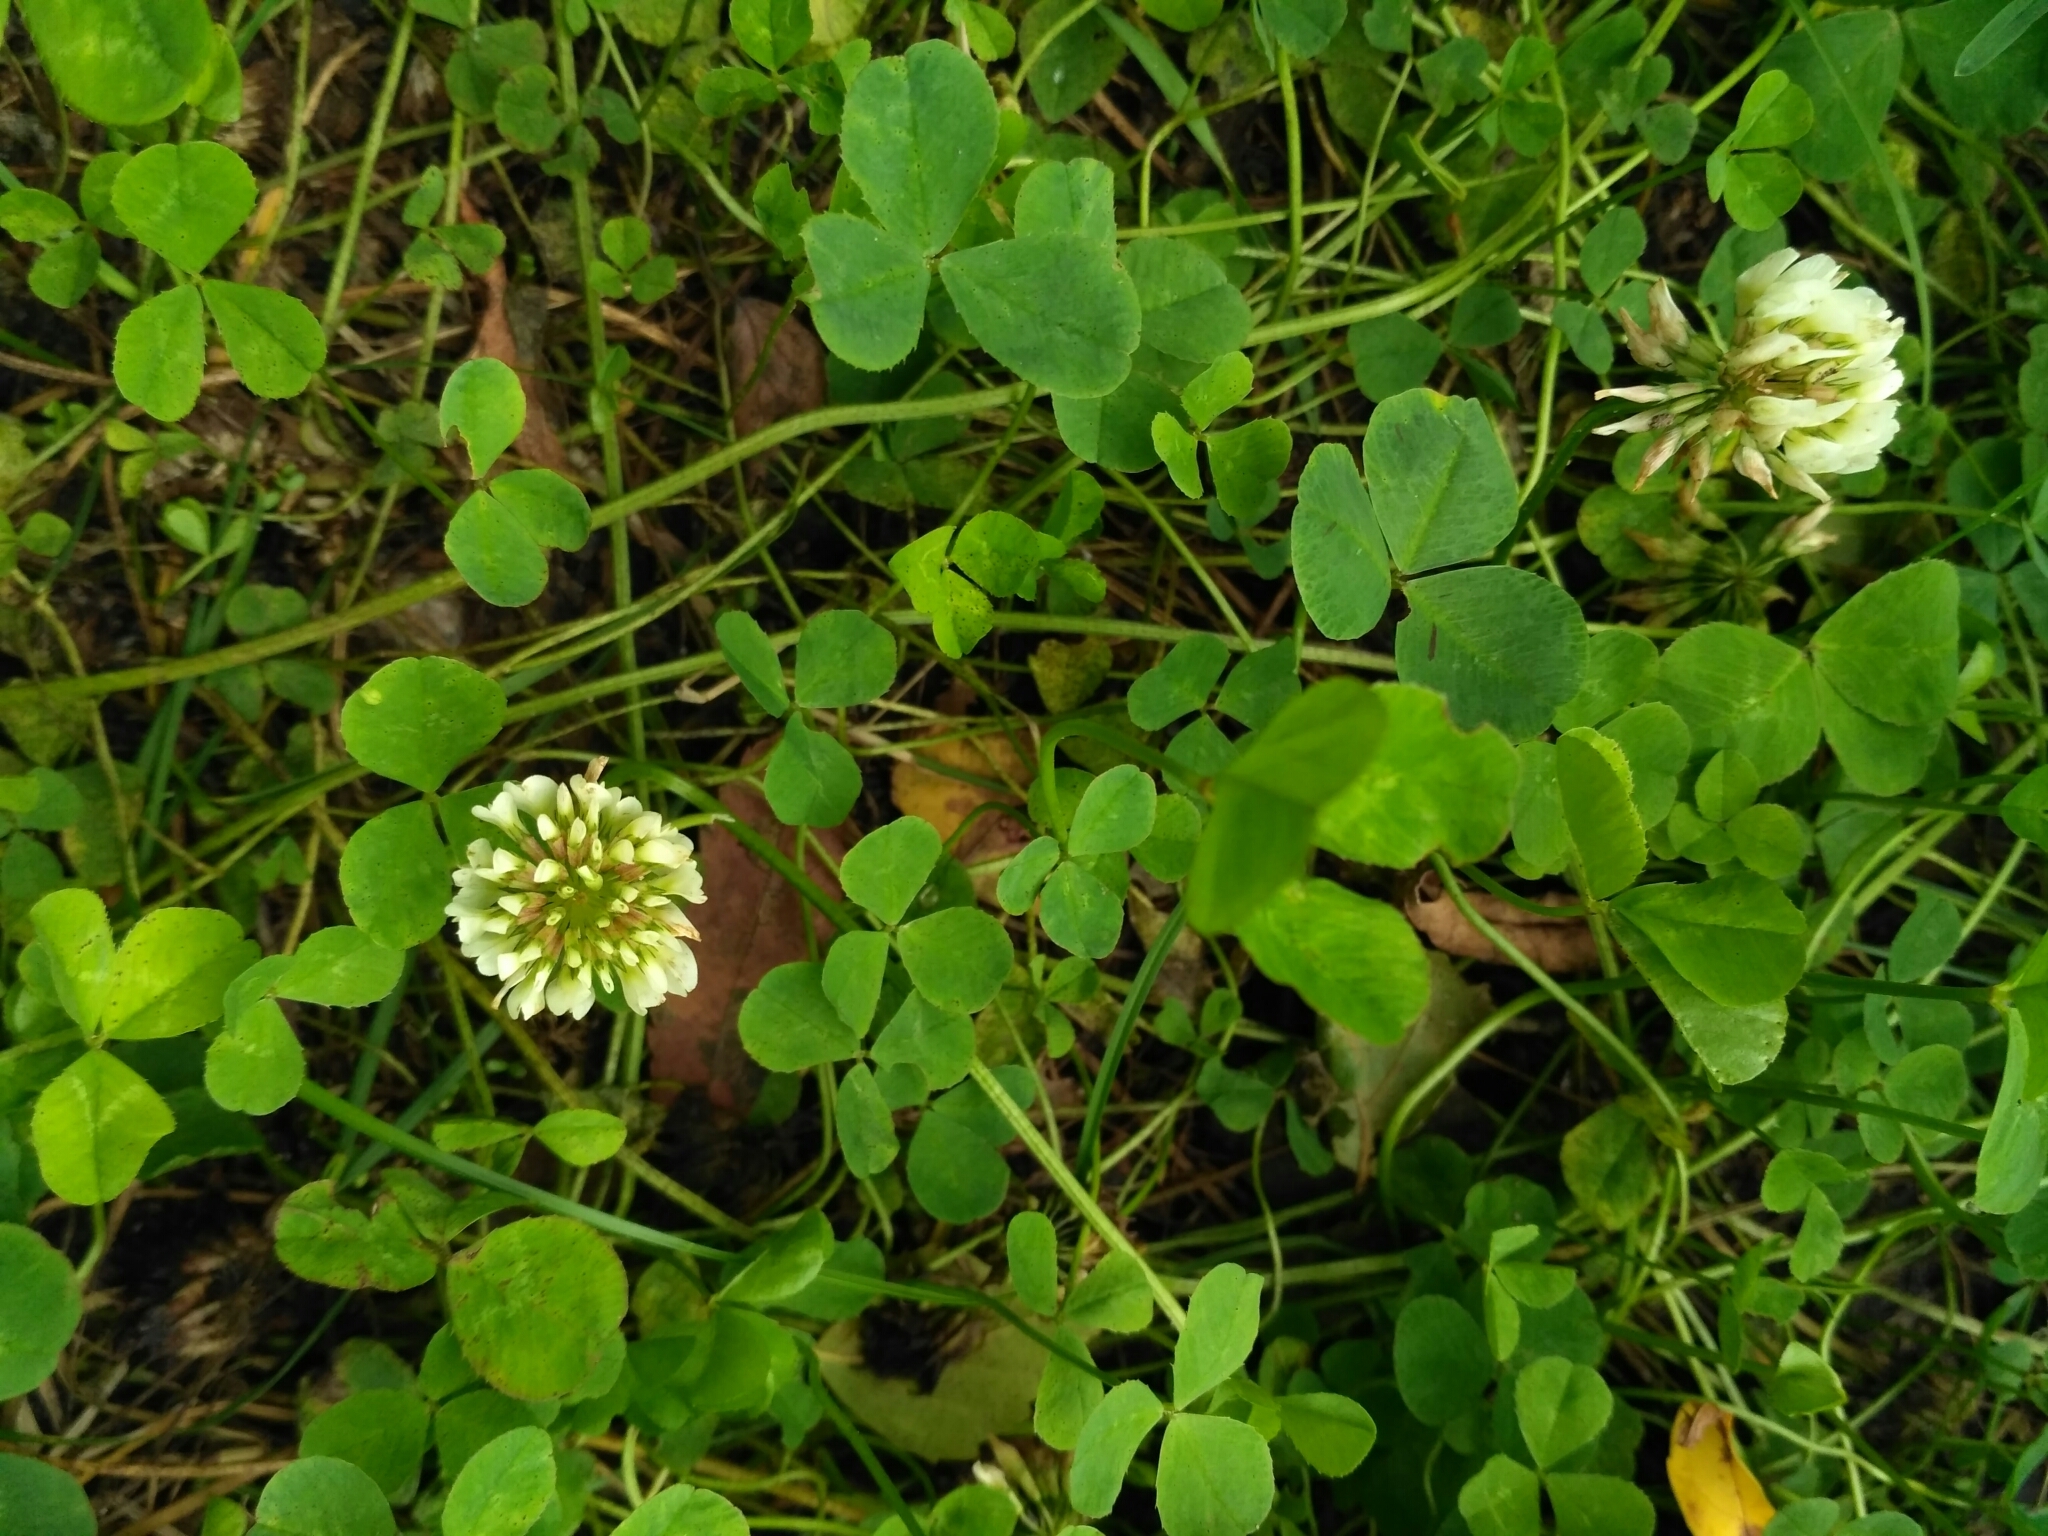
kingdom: Plantae
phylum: Tracheophyta
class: Magnoliopsida
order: Fabales
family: Fabaceae
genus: Trifolium
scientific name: Trifolium repens
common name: White clover
